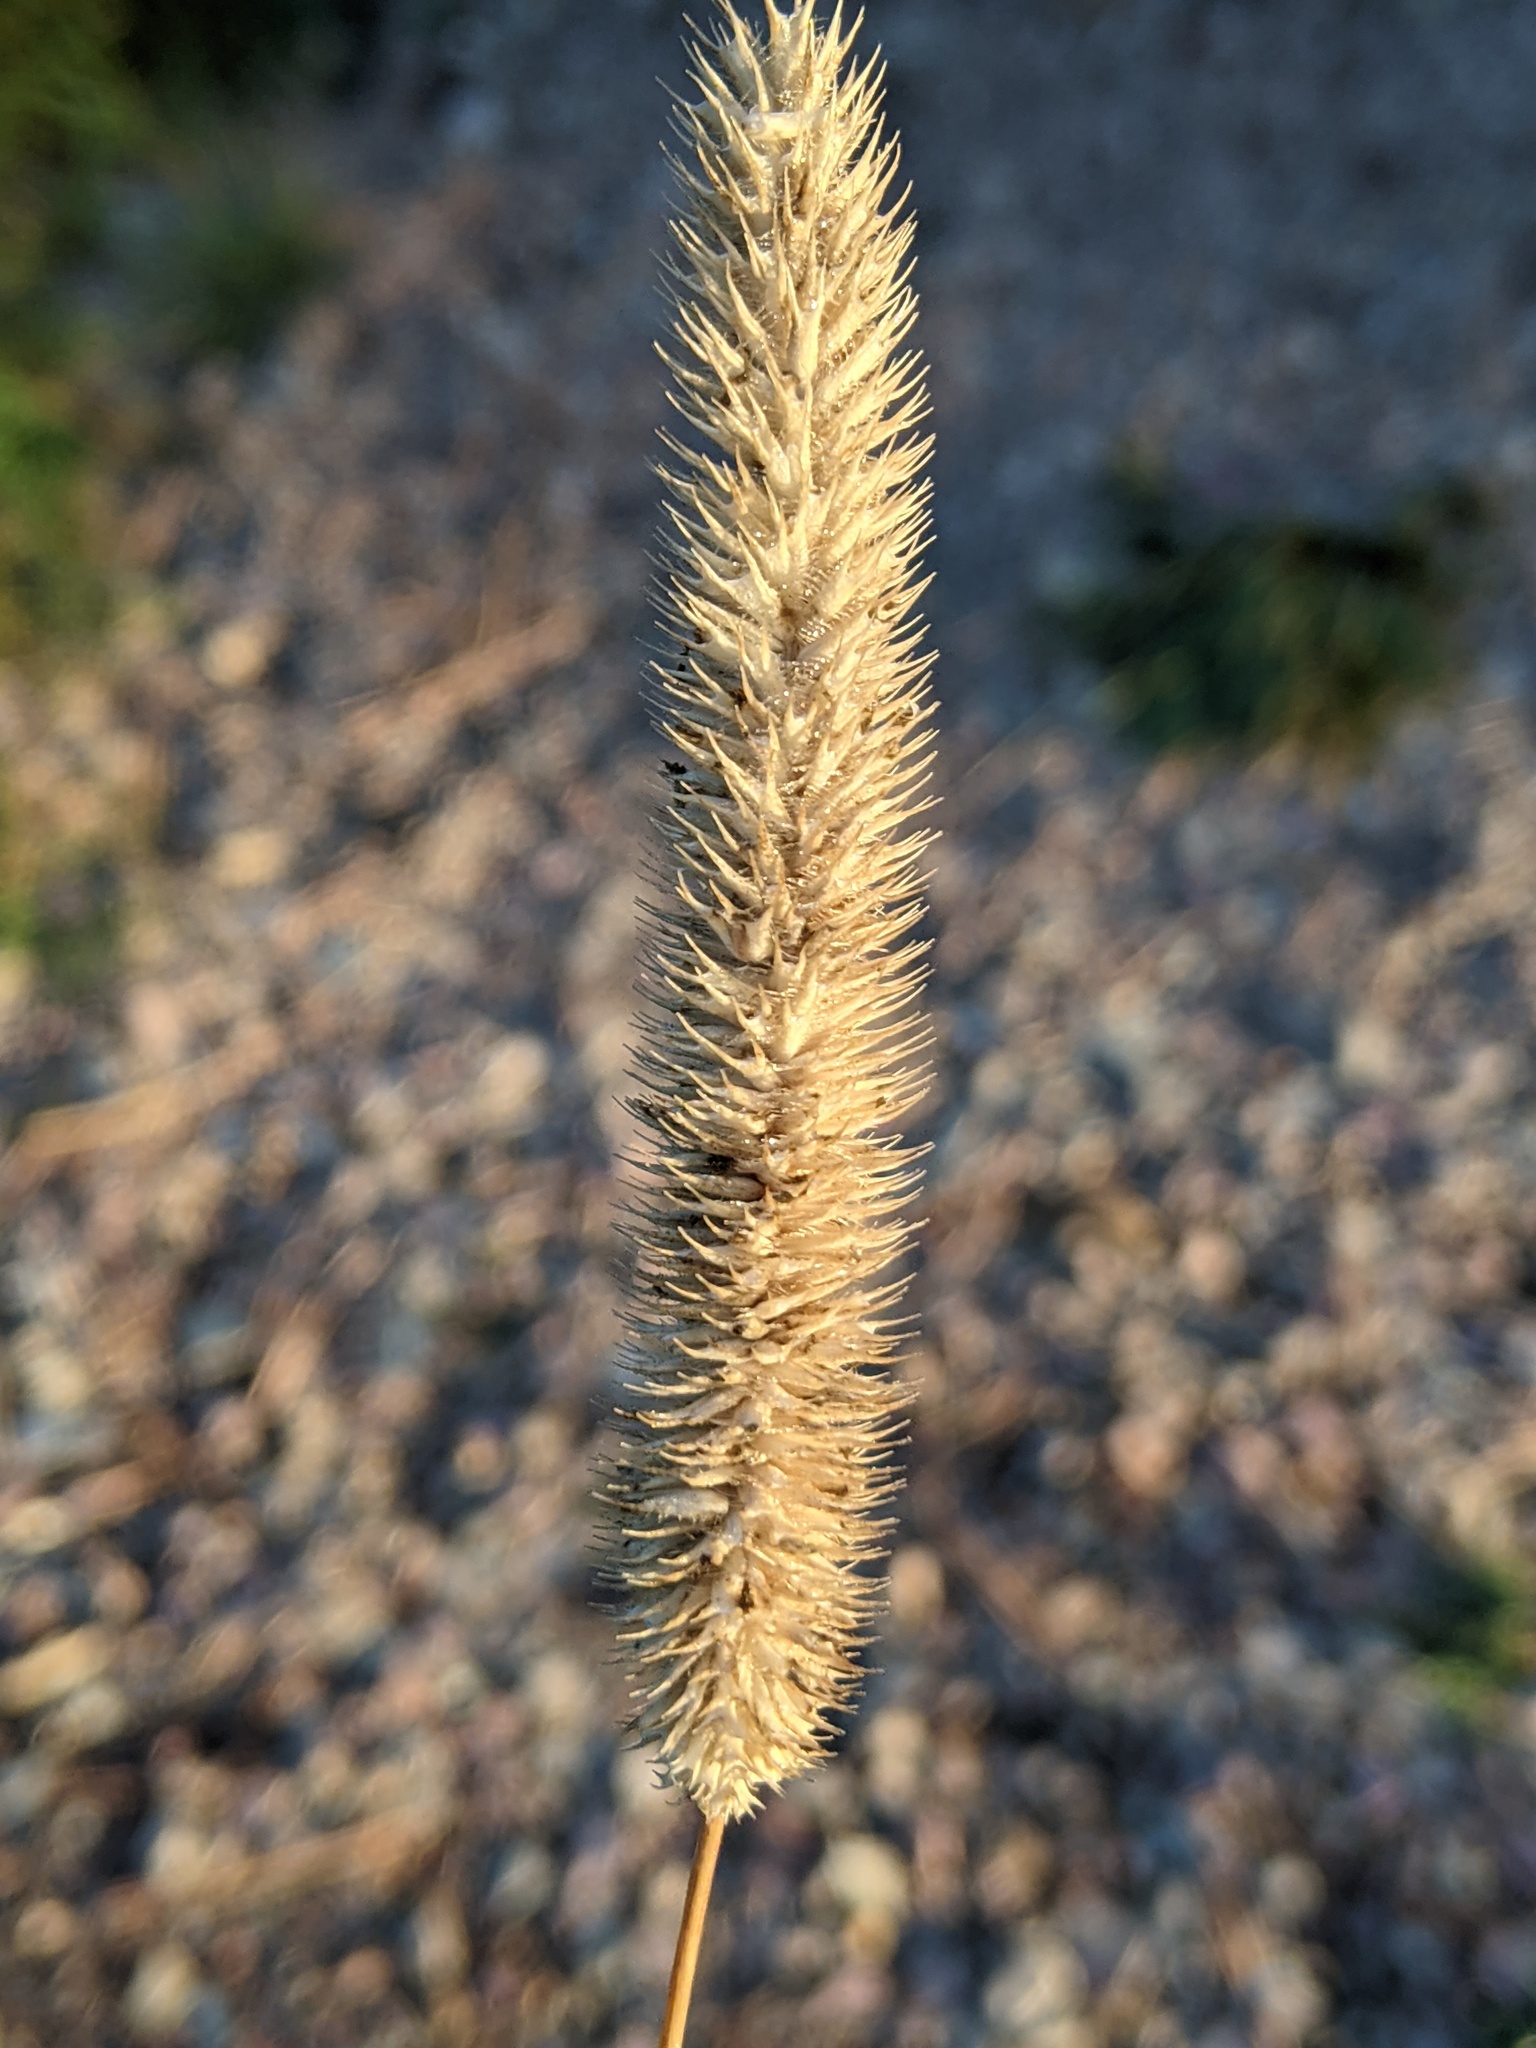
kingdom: Plantae
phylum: Tracheophyta
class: Liliopsida
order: Poales
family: Poaceae
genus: Phleum
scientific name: Phleum pratense
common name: Timothy grass
